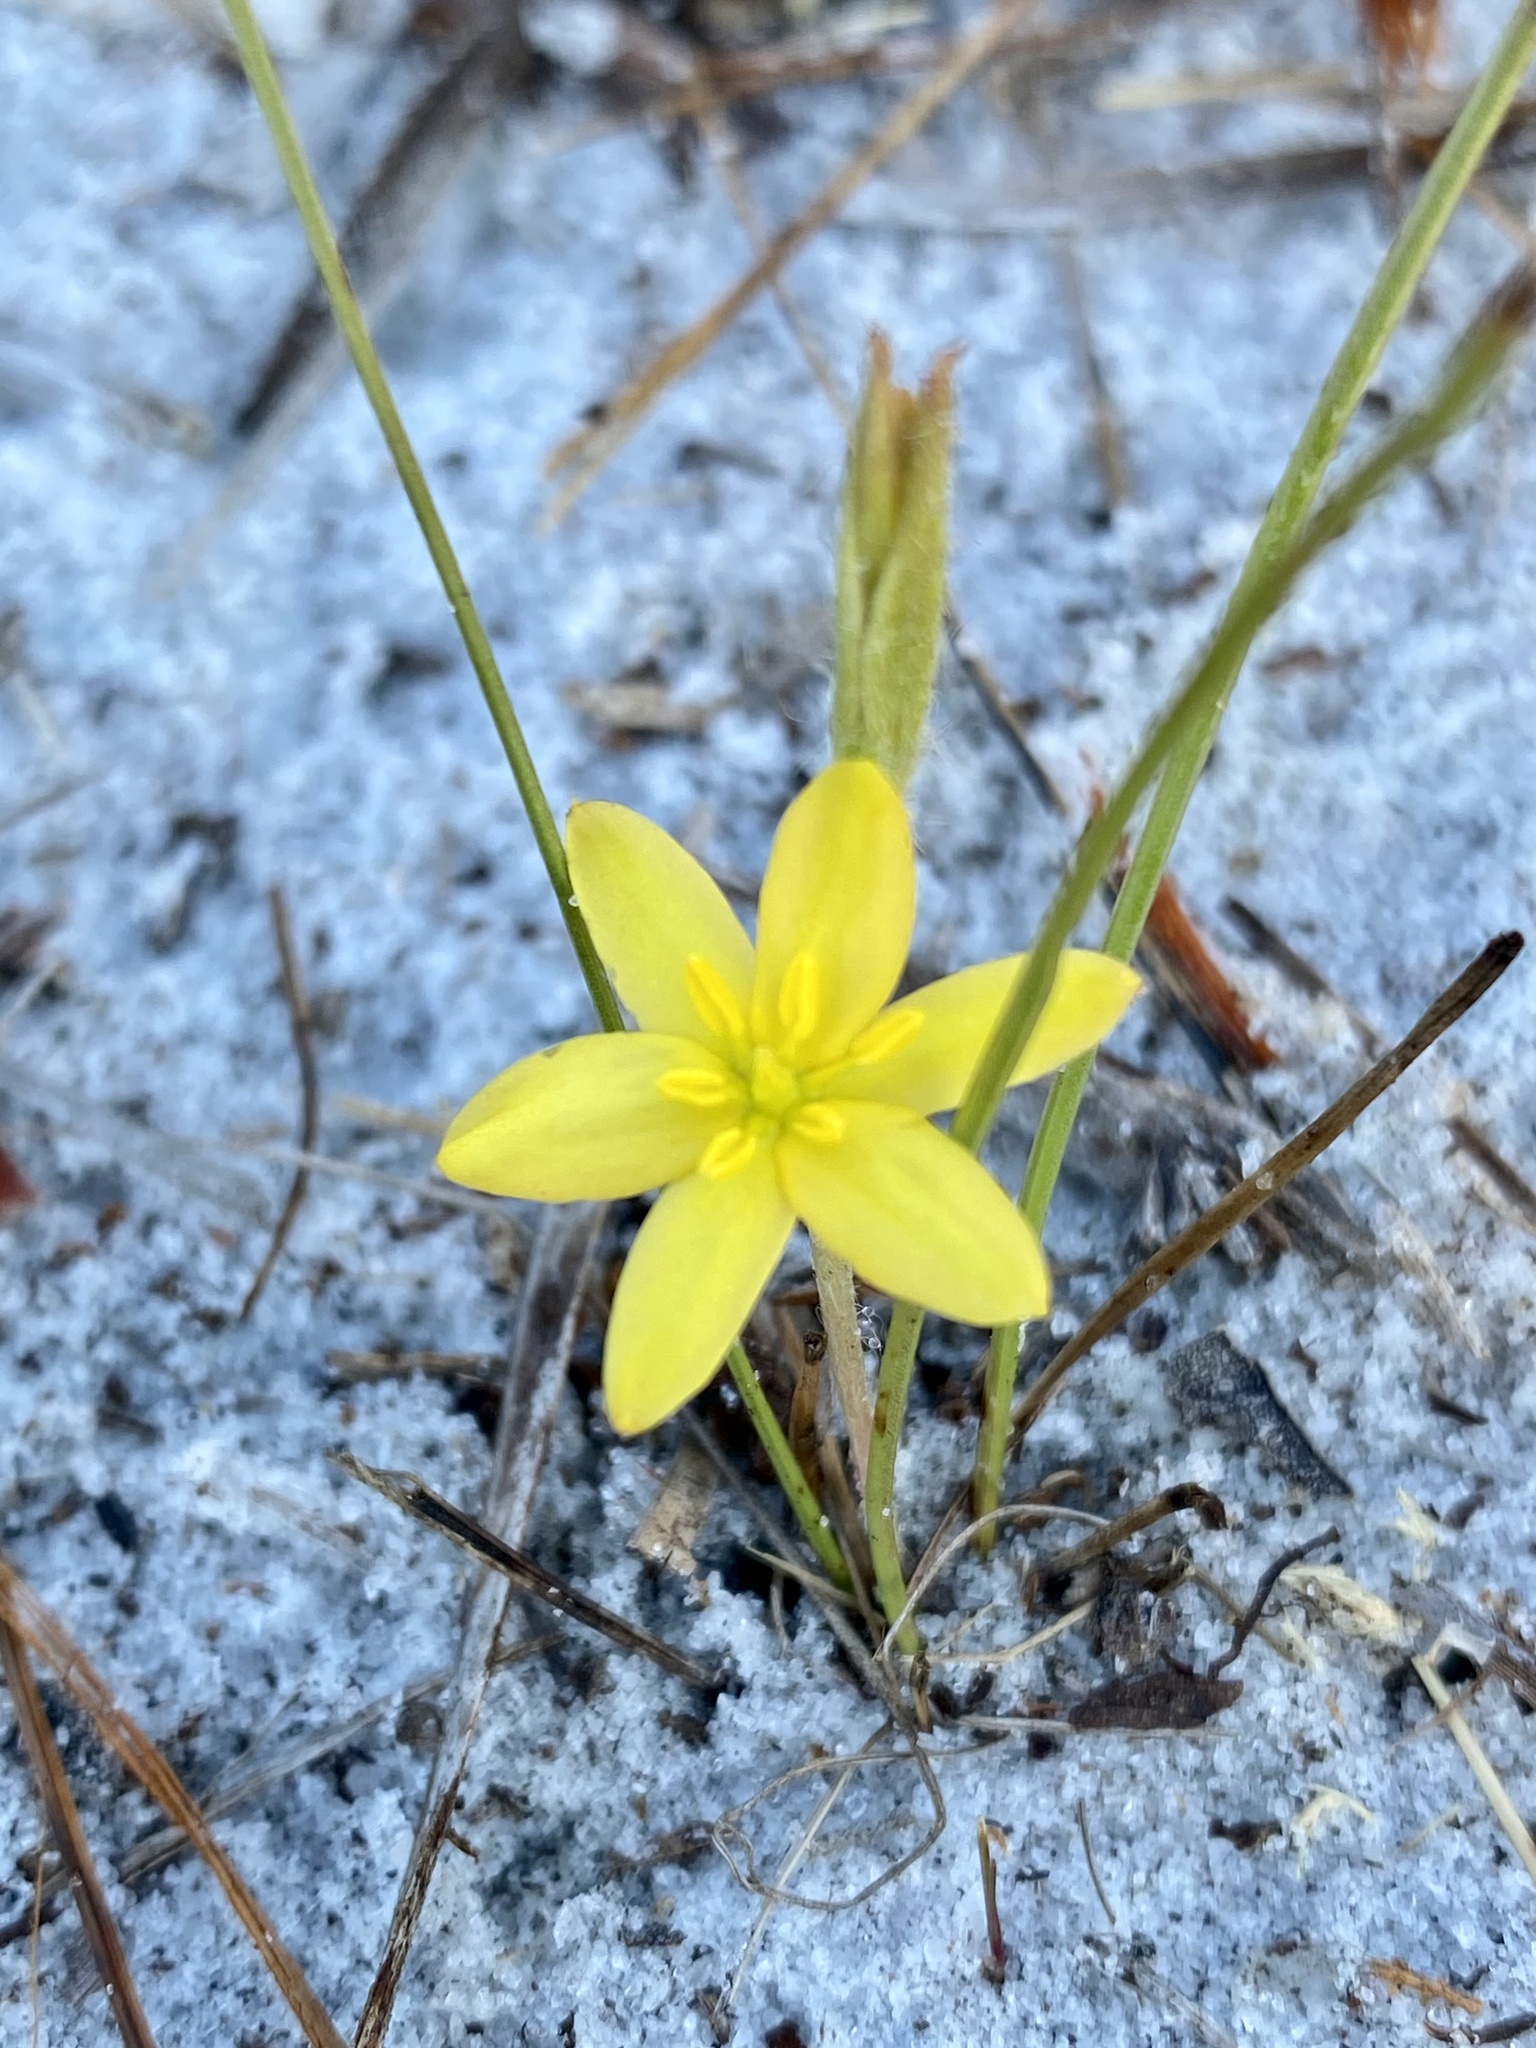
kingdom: Plantae
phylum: Tracheophyta
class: Liliopsida
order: Asparagales
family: Hypoxidaceae
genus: Hypoxis
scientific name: Hypoxis juncea
